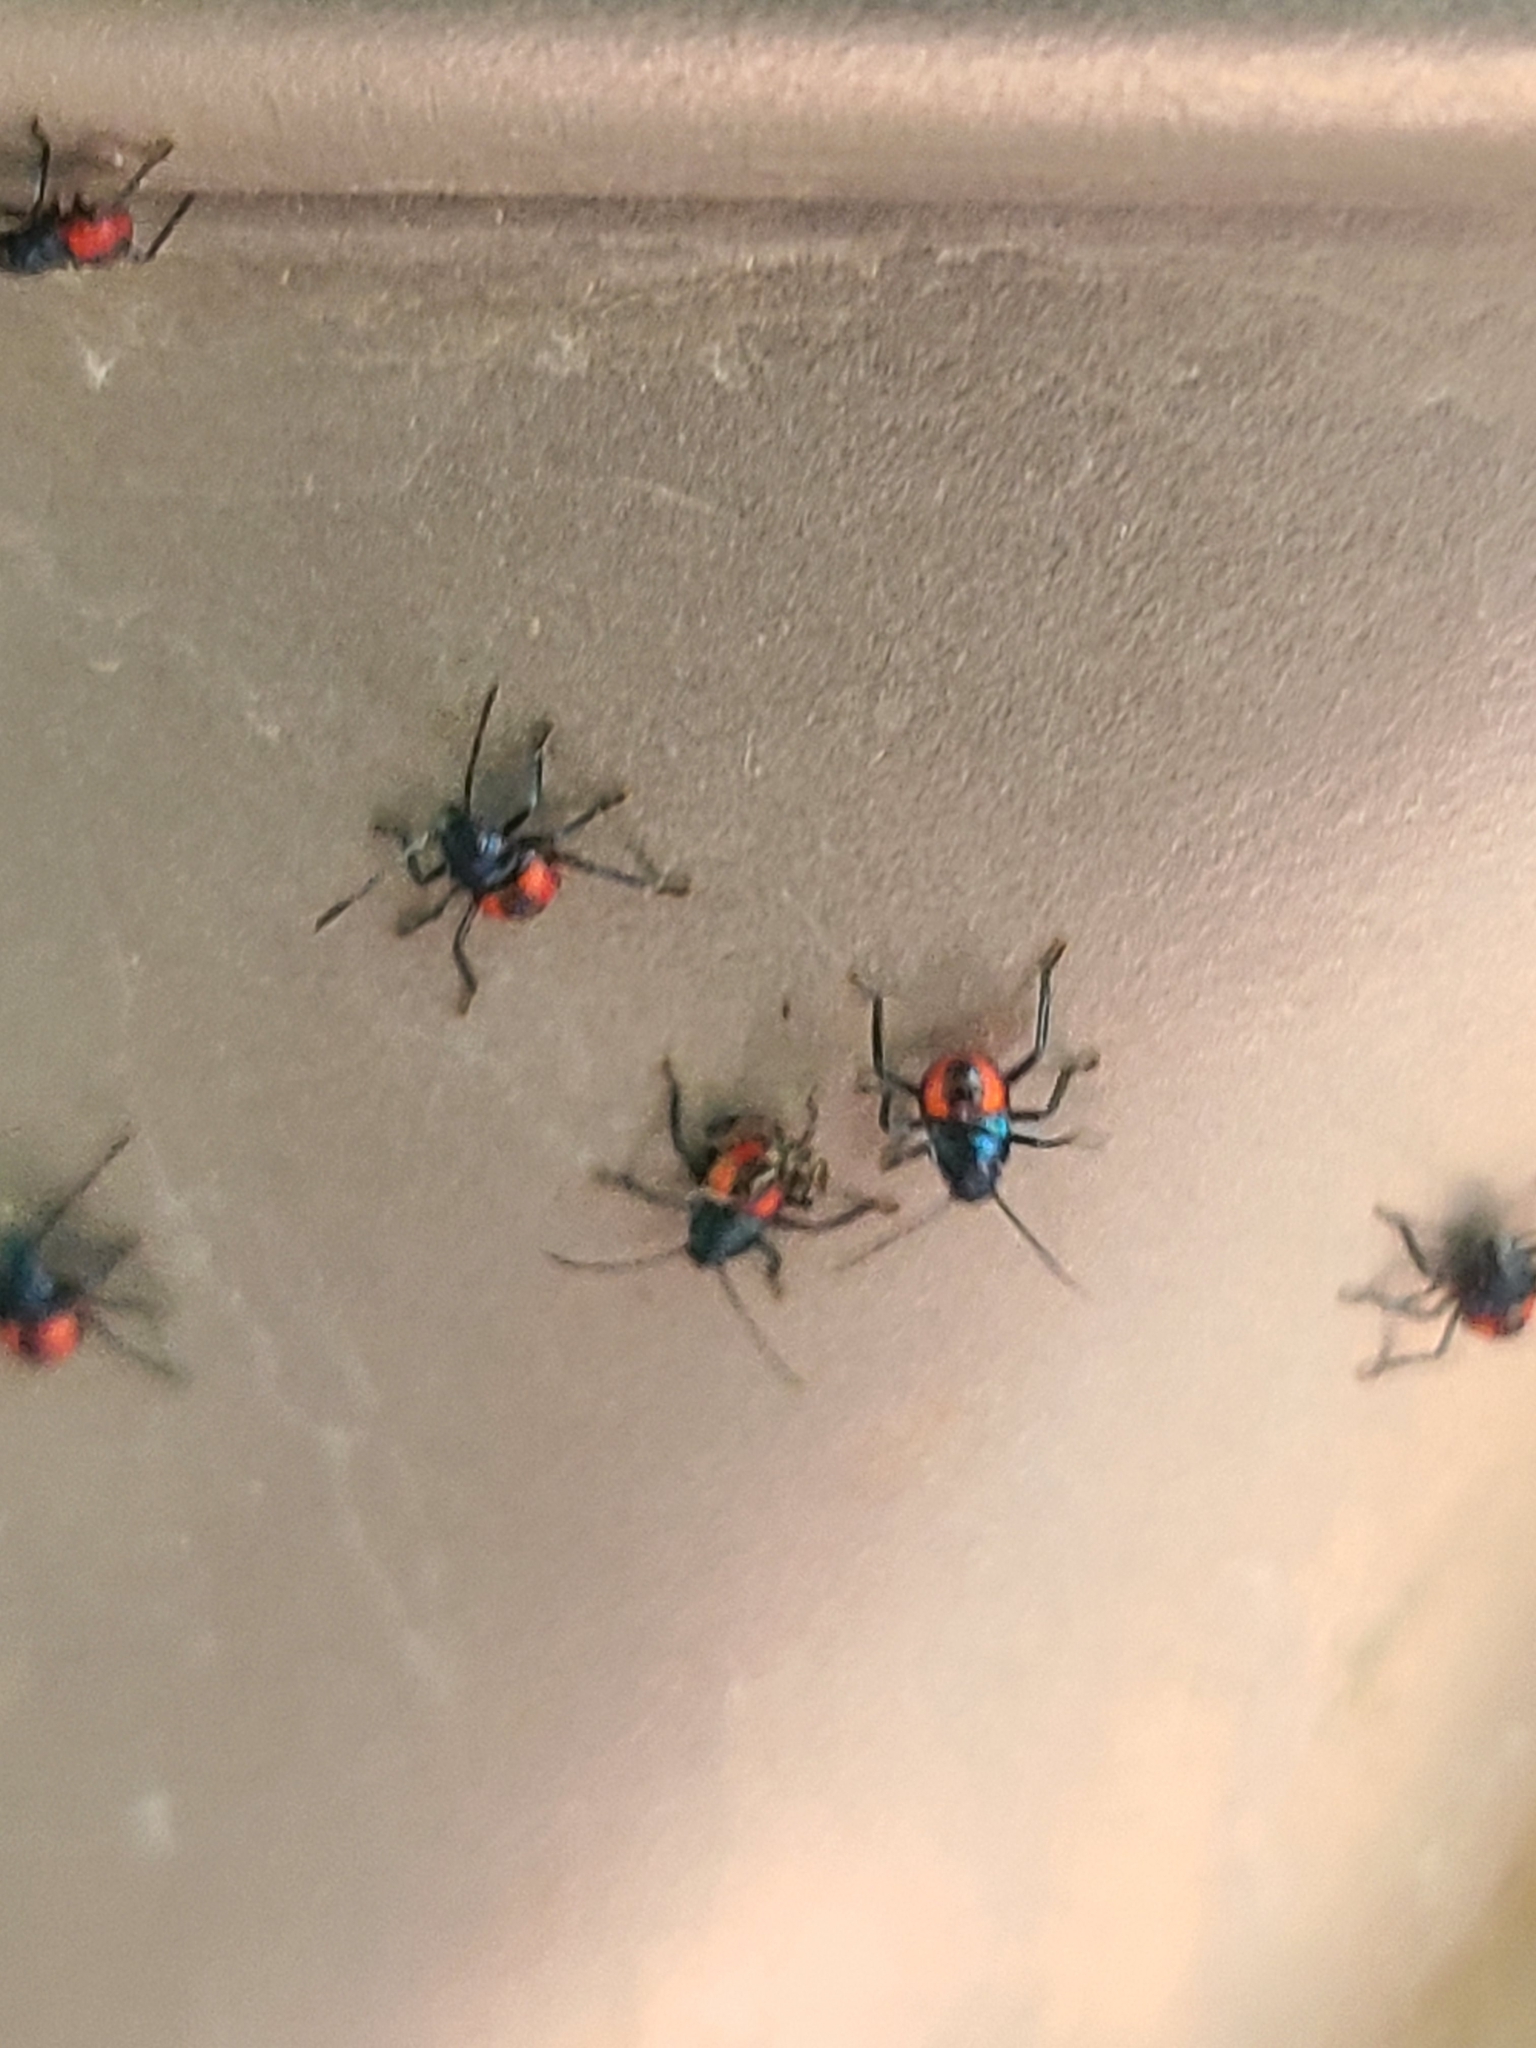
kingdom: Animalia
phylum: Arthropoda
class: Insecta
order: Hemiptera
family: Pentatomidae
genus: Euthyrhynchus
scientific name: Euthyrhynchus floridanus
